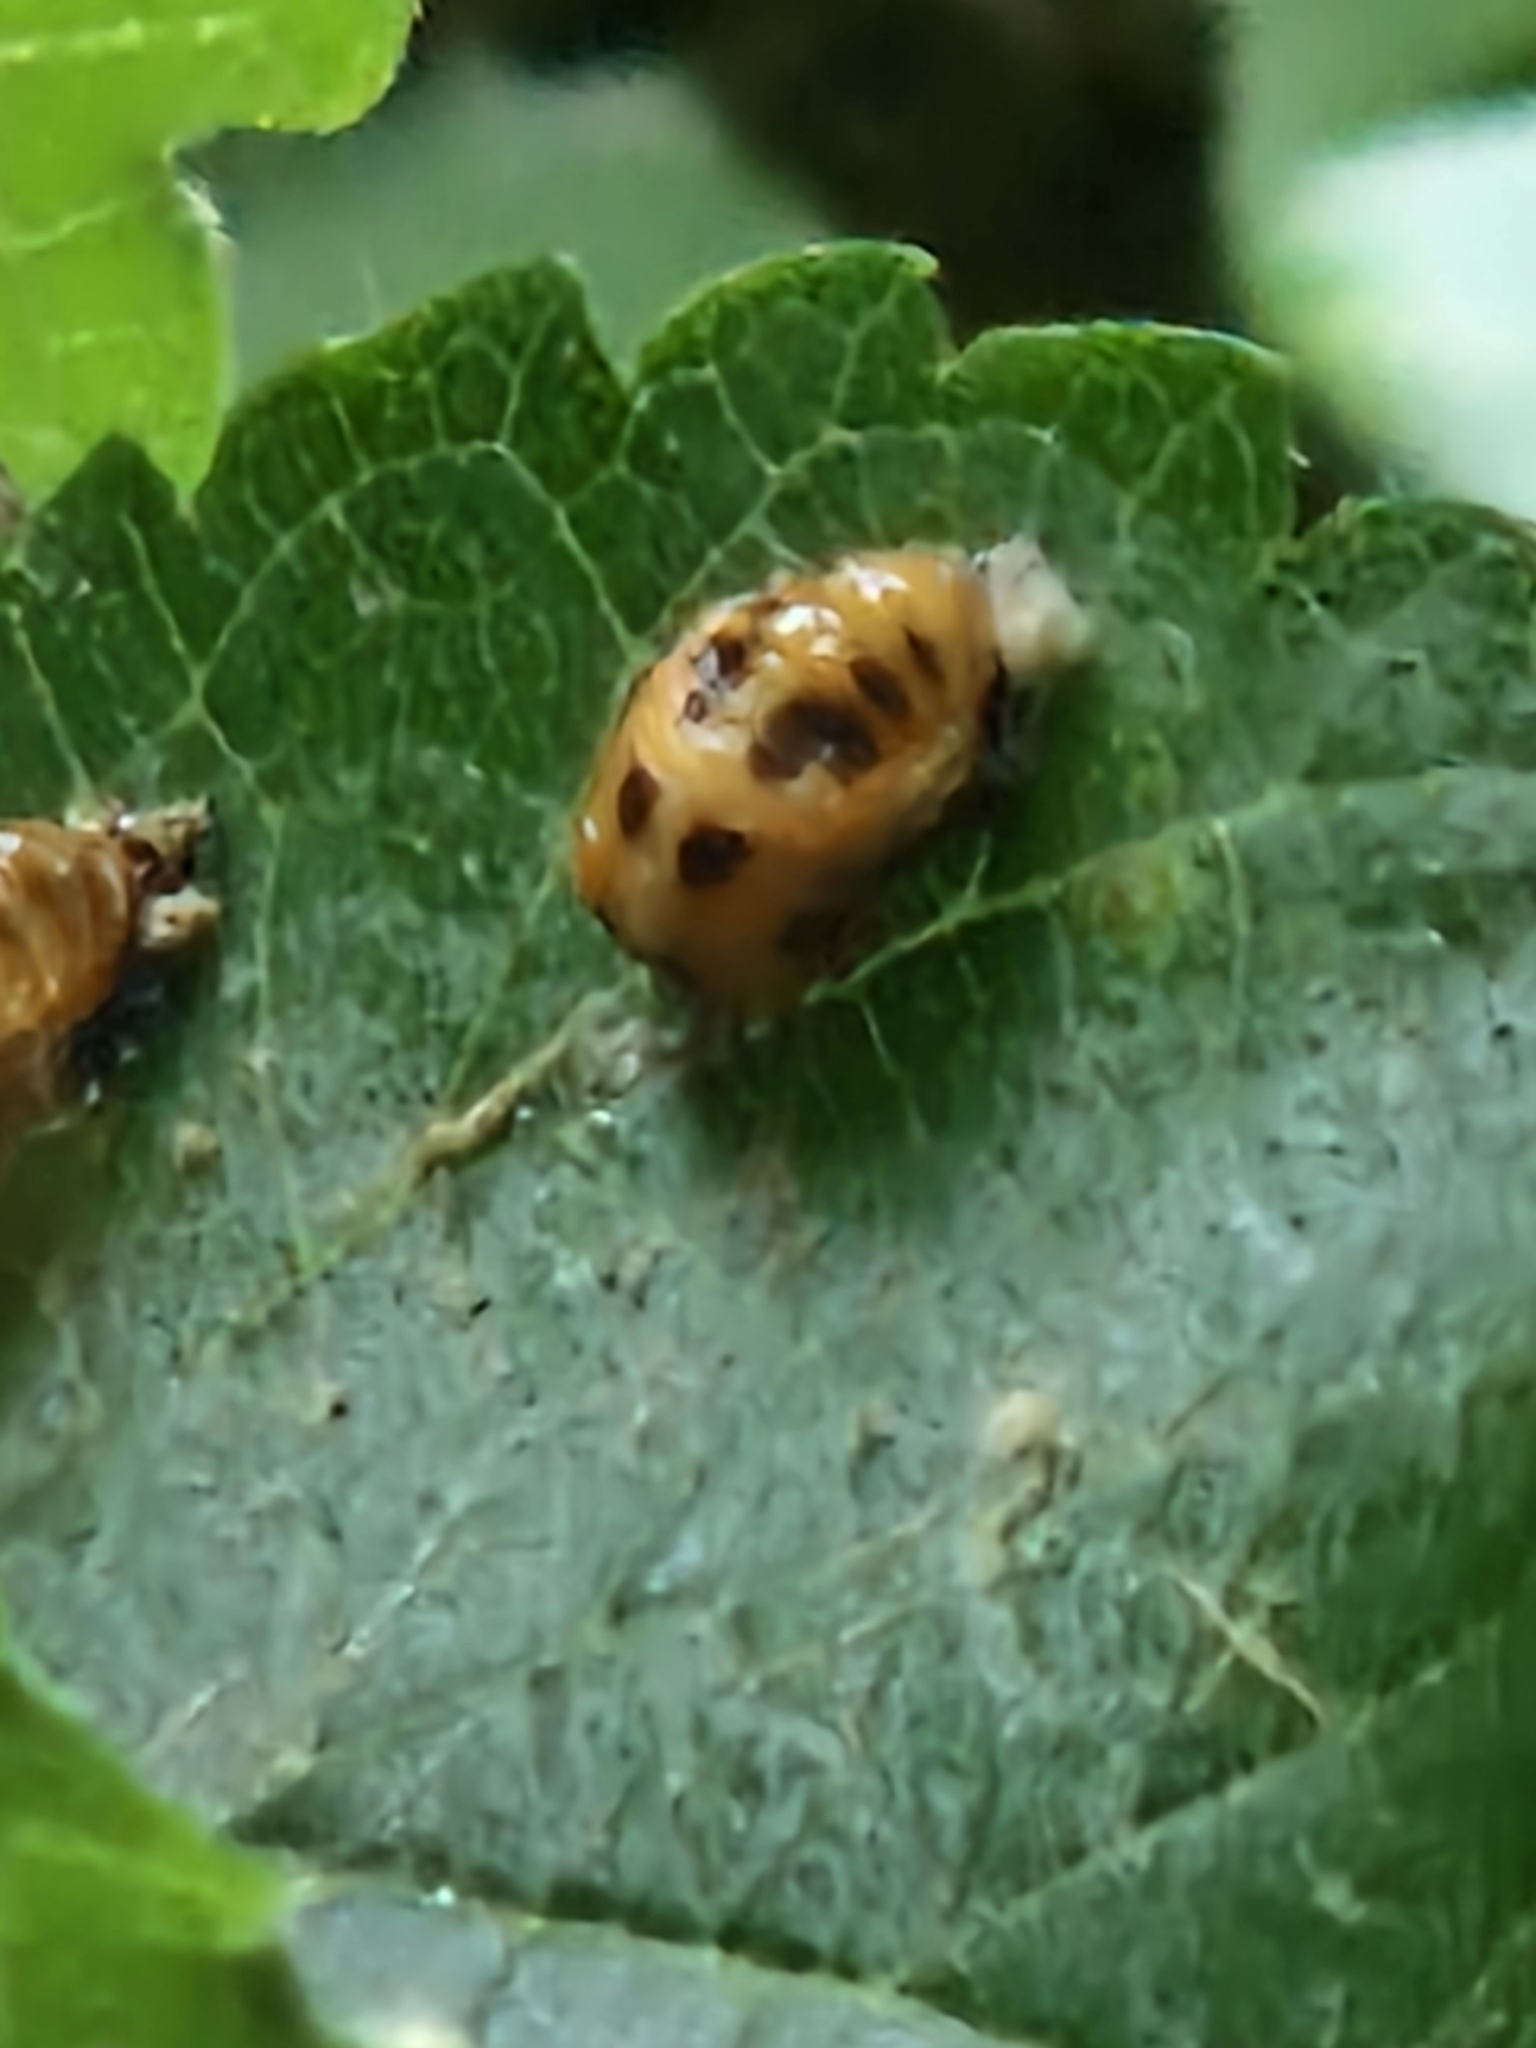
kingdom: Animalia
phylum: Arthropoda
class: Insecta
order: Coleoptera
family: Coccinellidae
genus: Harmonia
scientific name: Harmonia axyridis
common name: Harlequin ladybird
